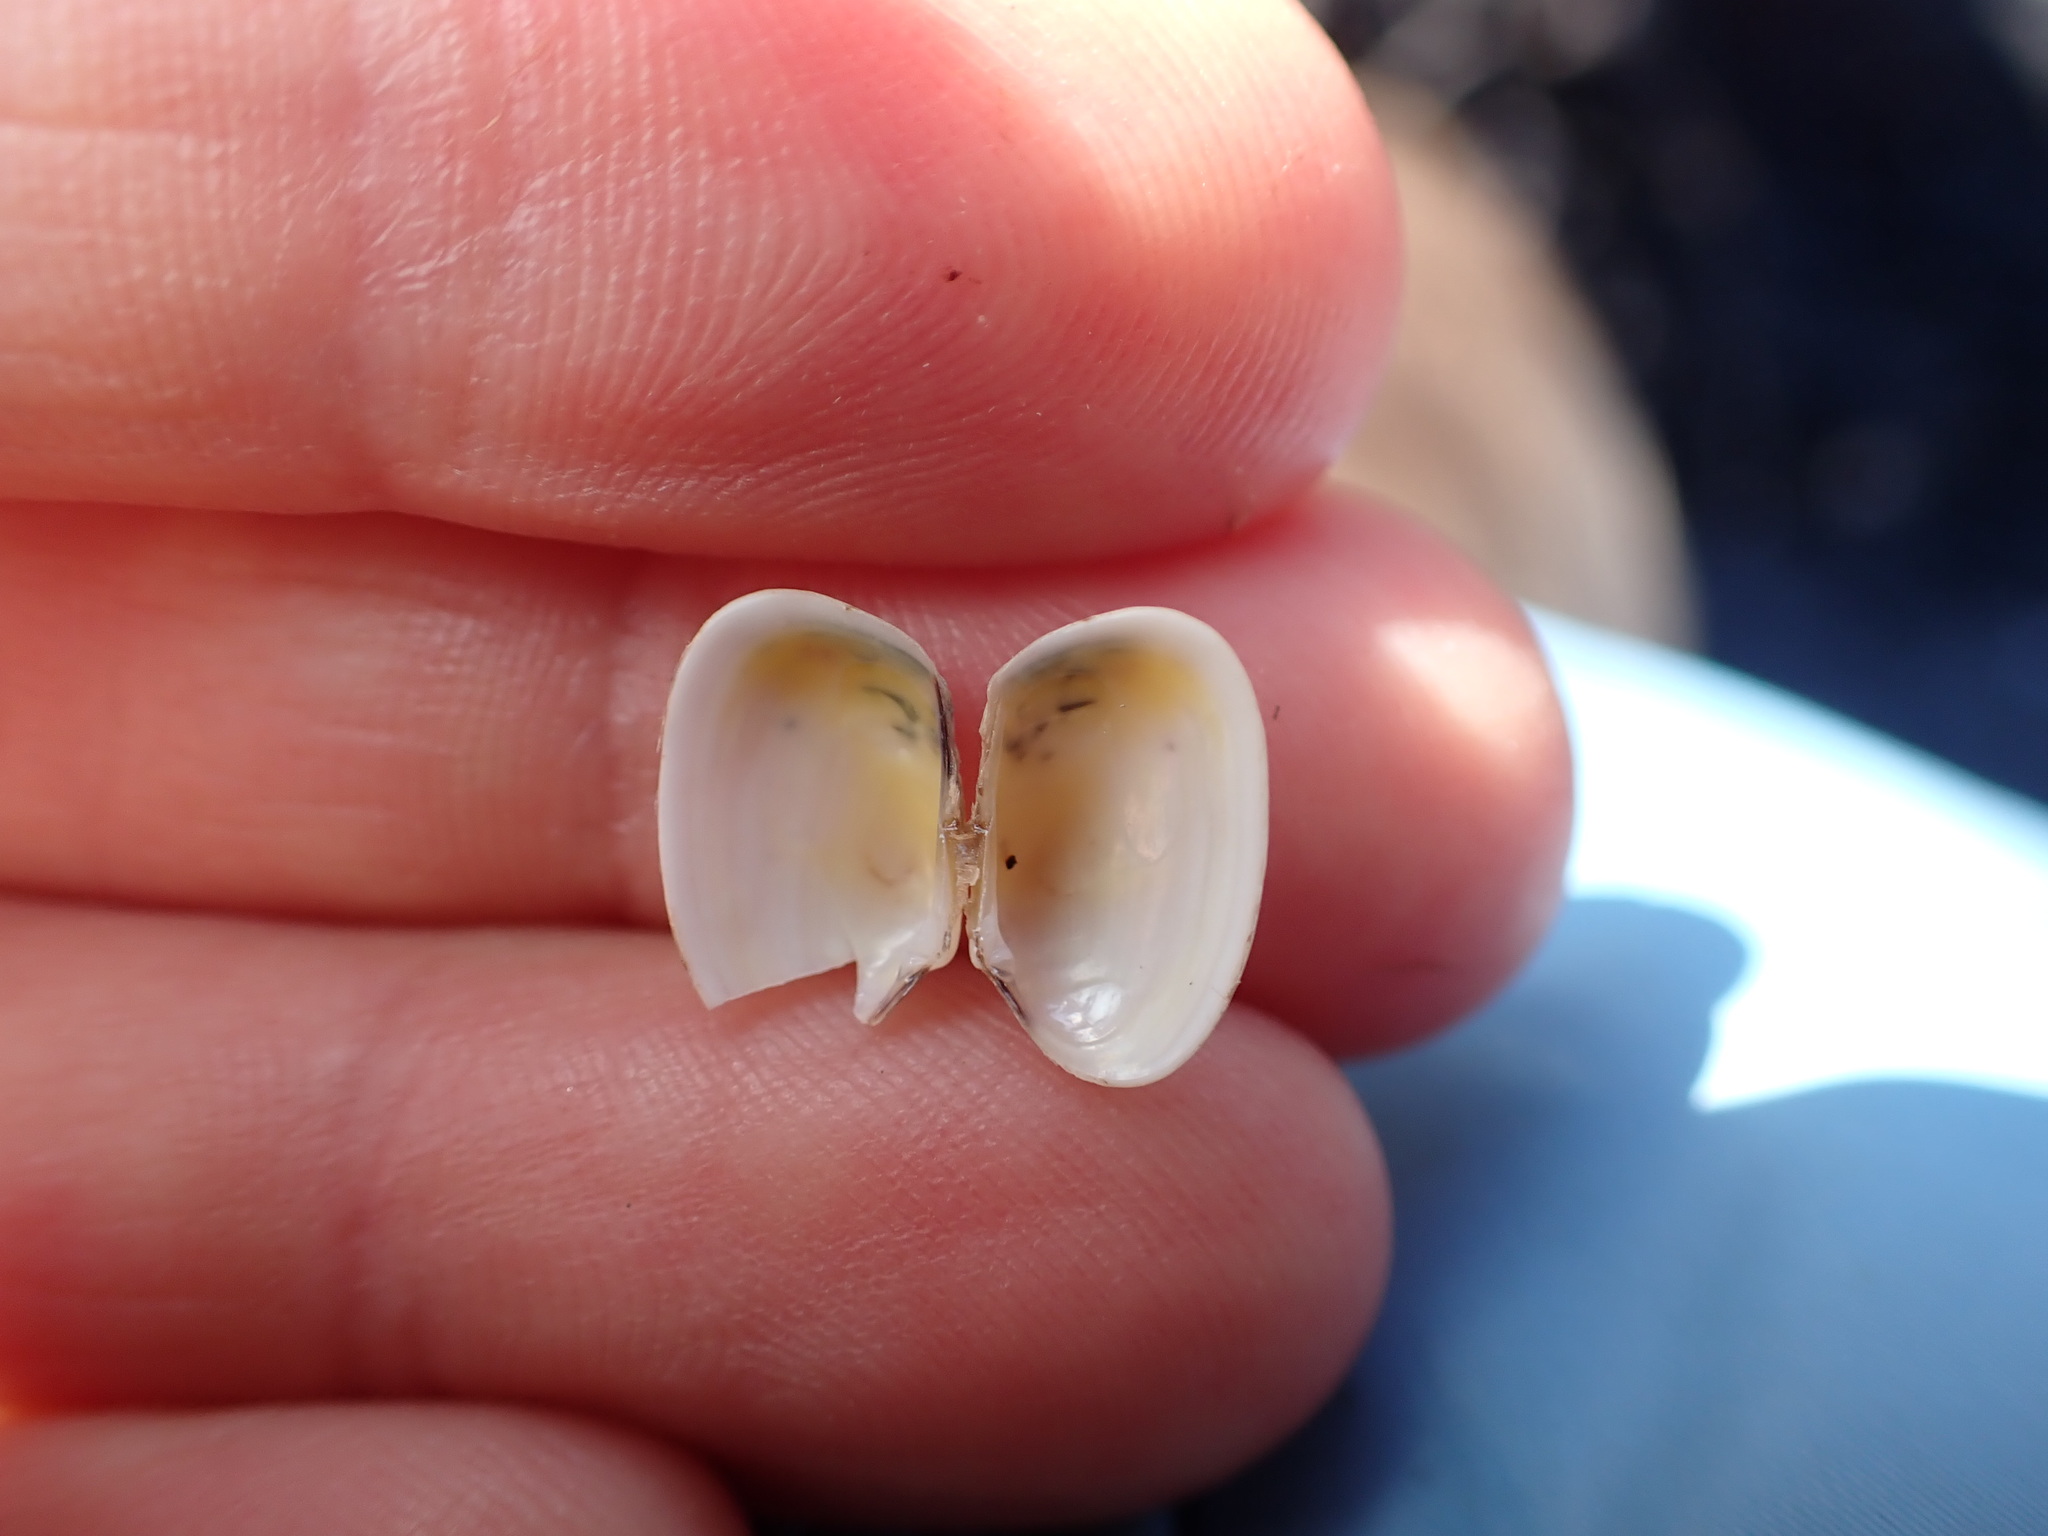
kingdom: Animalia
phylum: Mollusca
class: Bivalvia
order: Venerida
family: Veneridae
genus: Venerupis
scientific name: Venerupis largillierti
